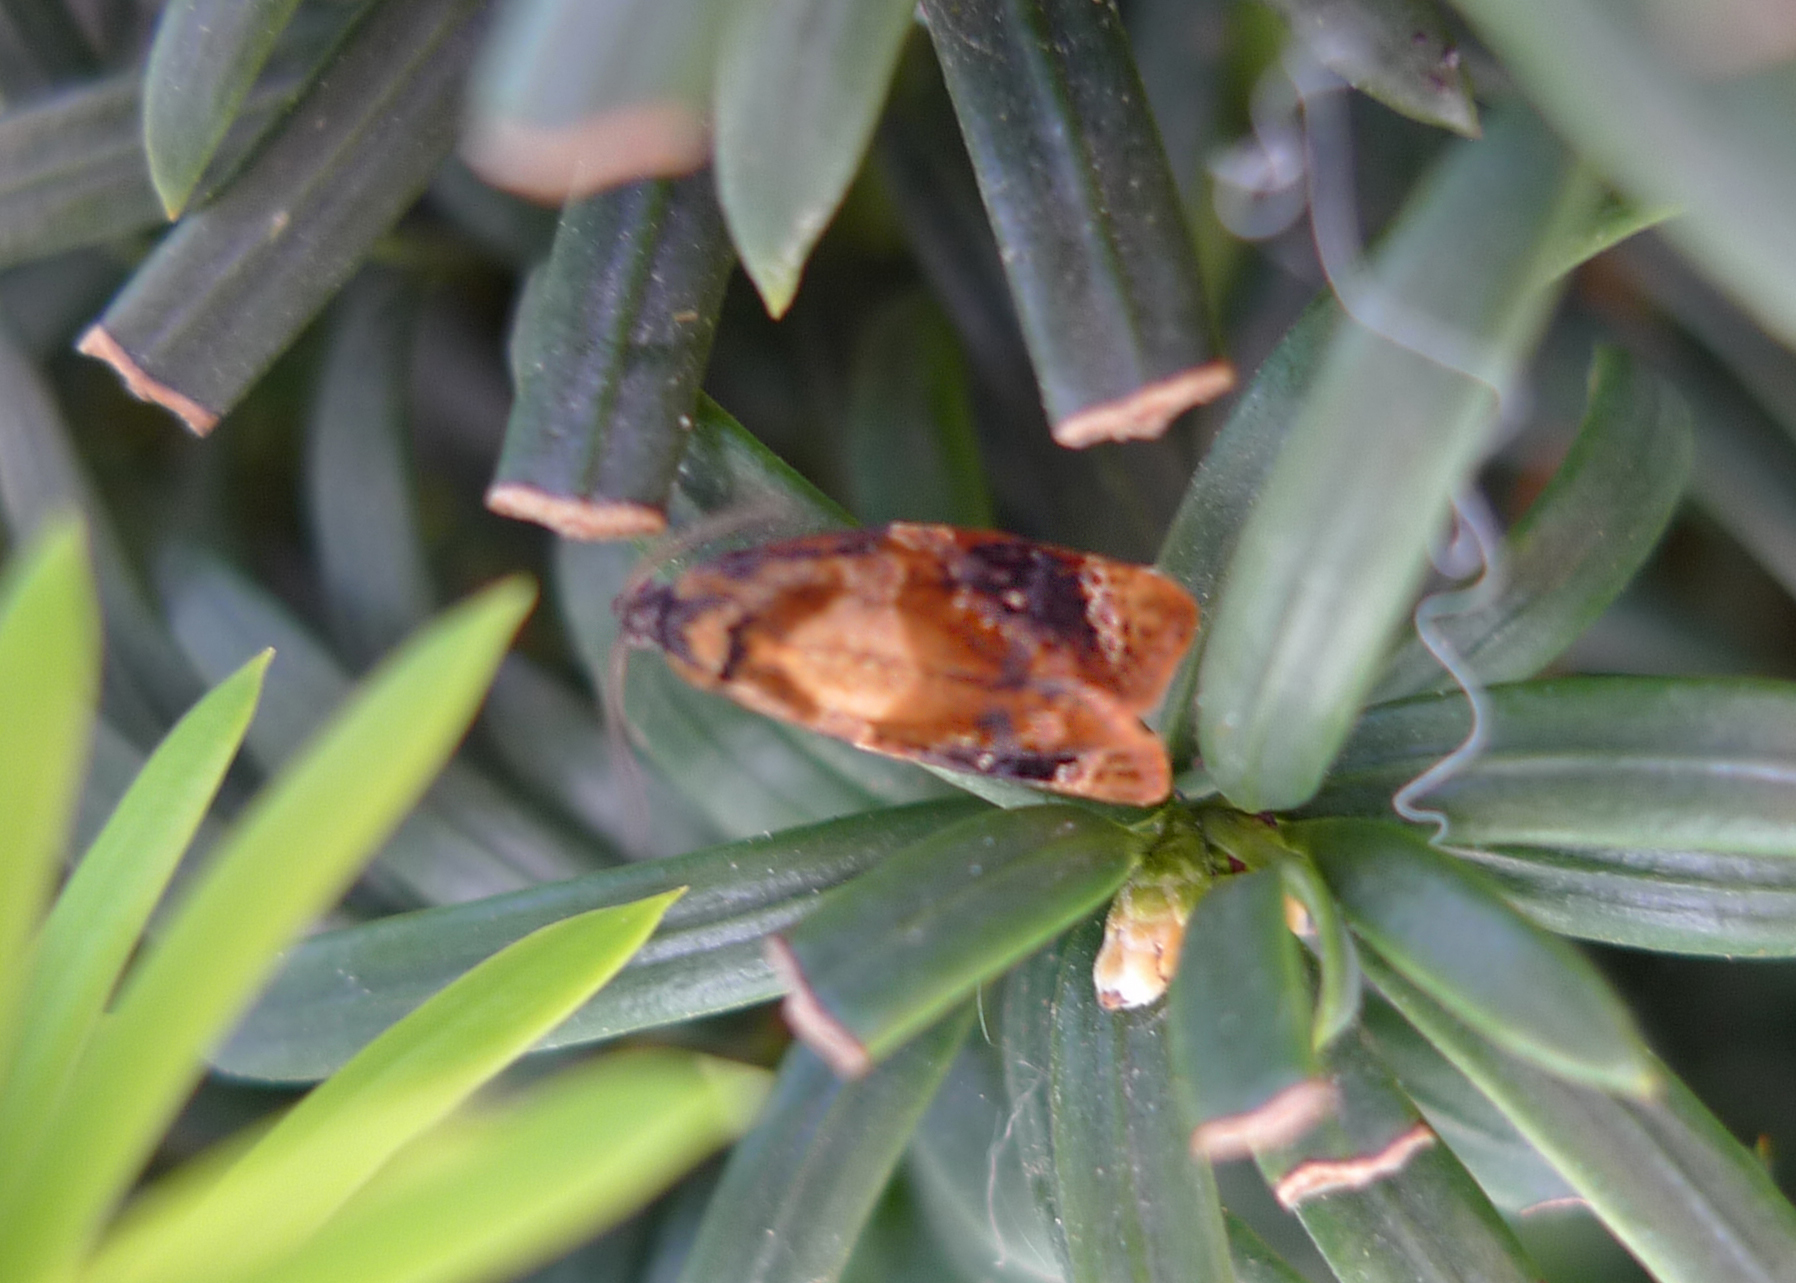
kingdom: Animalia
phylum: Arthropoda
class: Insecta
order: Lepidoptera
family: Tortricidae
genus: Ditula
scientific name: Ditula angustiorana
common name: Red-barred tortrix
